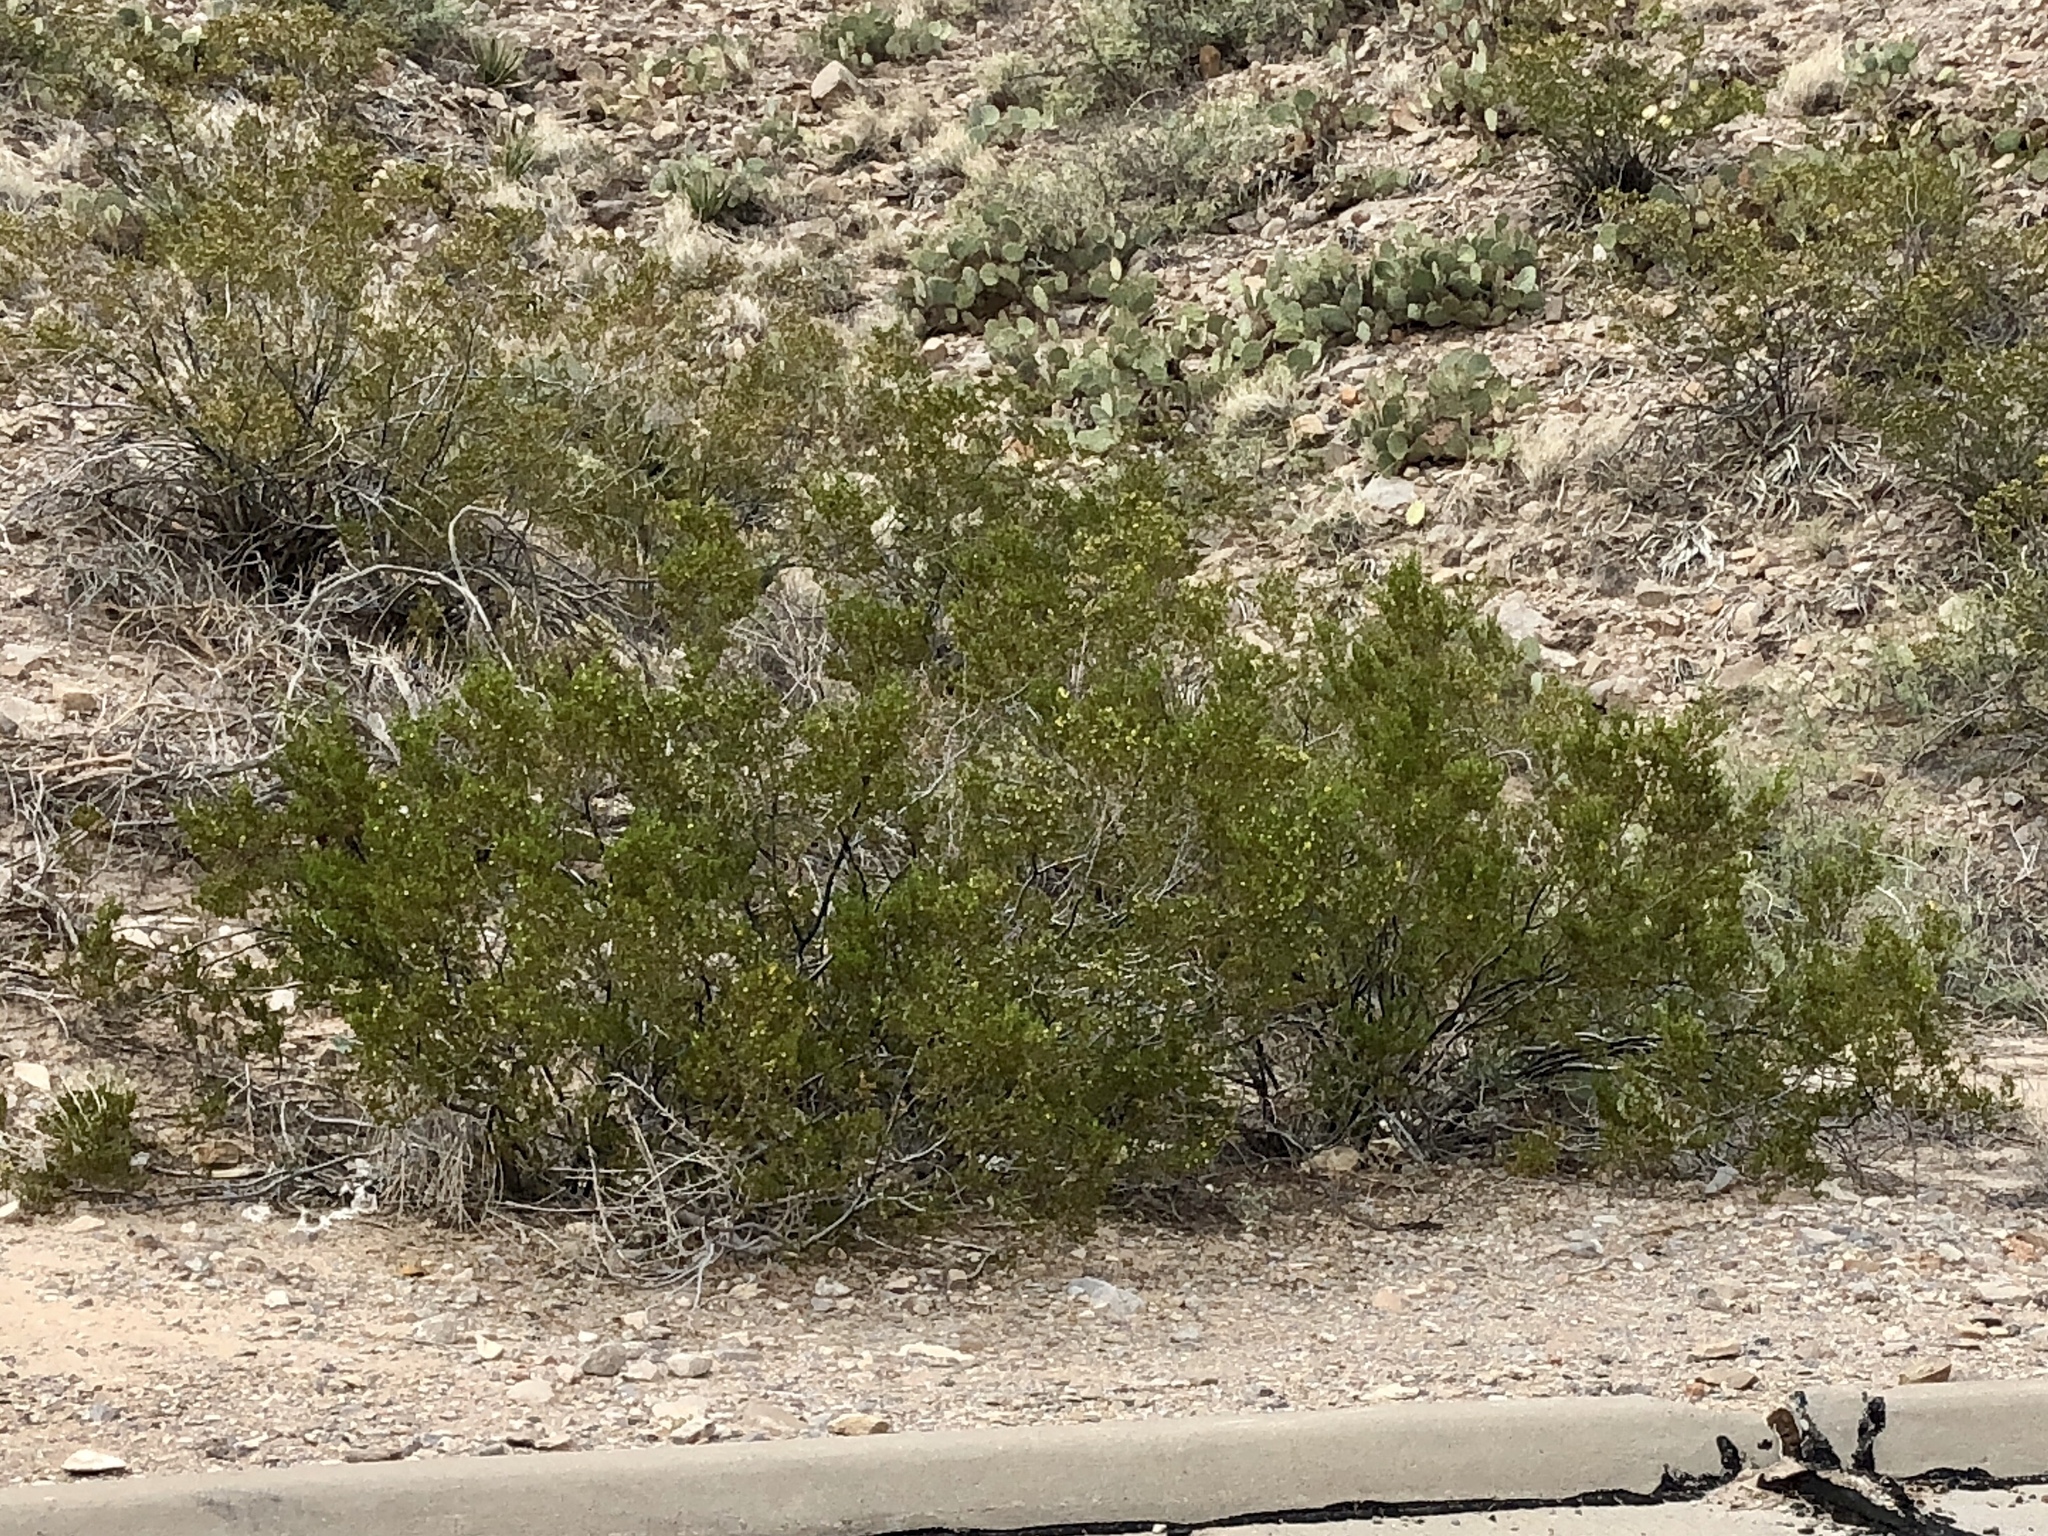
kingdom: Plantae
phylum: Tracheophyta
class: Magnoliopsida
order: Zygophyllales
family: Zygophyllaceae
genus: Larrea
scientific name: Larrea tridentata
